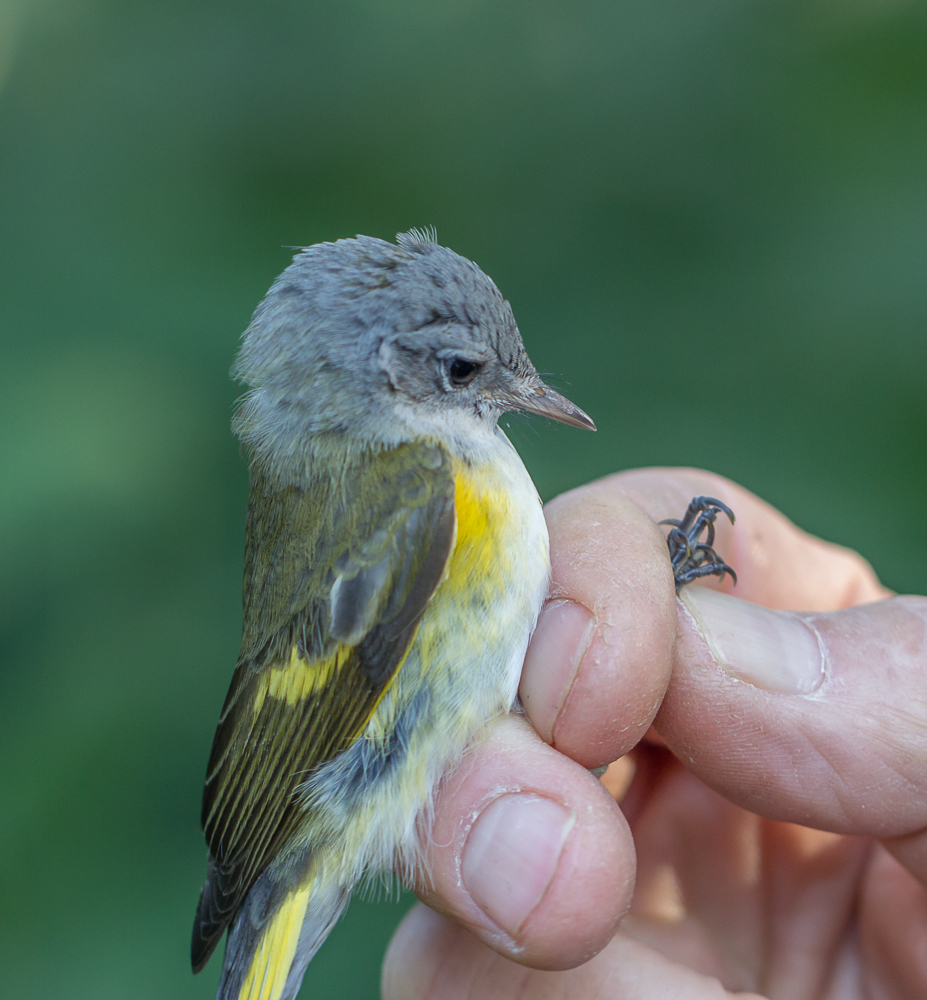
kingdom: Animalia
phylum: Chordata
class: Aves
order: Passeriformes
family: Parulidae
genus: Setophaga
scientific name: Setophaga ruticilla
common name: American redstart
